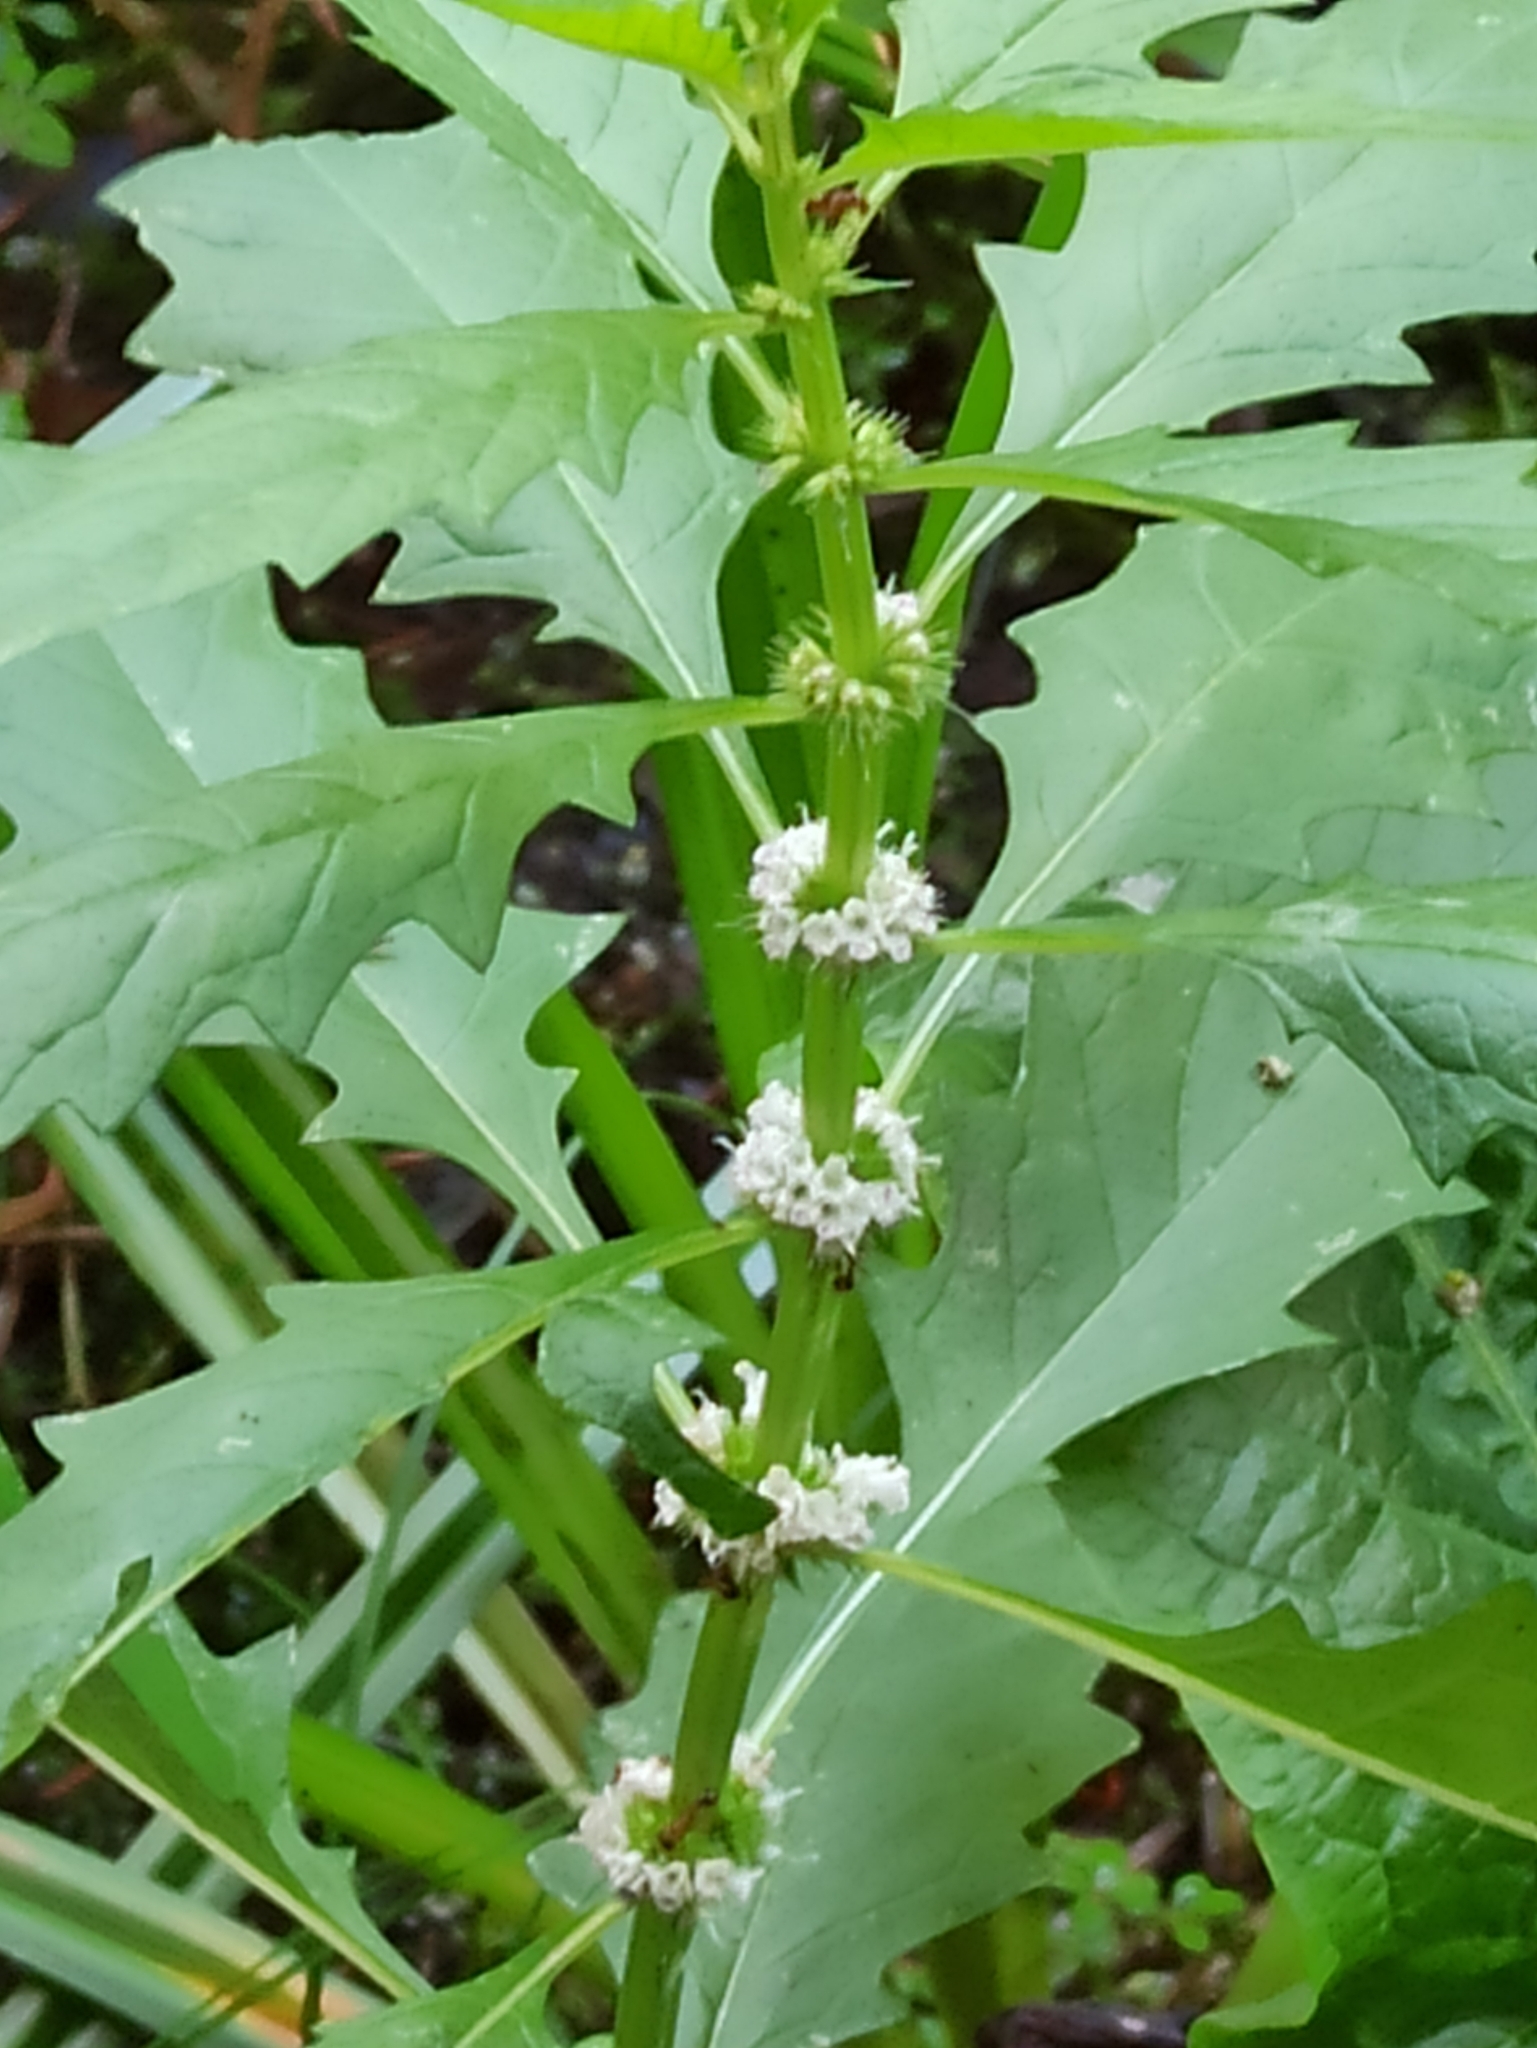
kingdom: Plantae
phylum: Tracheophyta
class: Magnoliopsida
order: Lamiales
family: Lamiaceae
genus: Lycopus
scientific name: Lycopus europaeus
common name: European bugleweed
